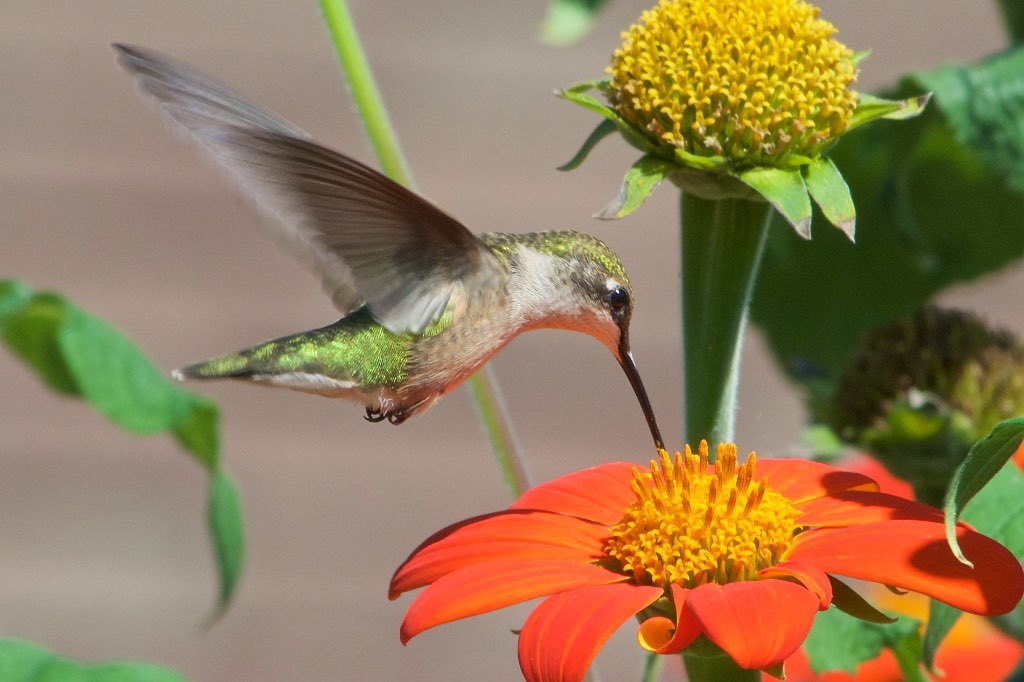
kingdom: Animalia
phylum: Chordata
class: Aves
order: Apodiformes
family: Trochilidae
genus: Archilochus
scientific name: Archilochus colubris
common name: Ruby-throated hummingbird
